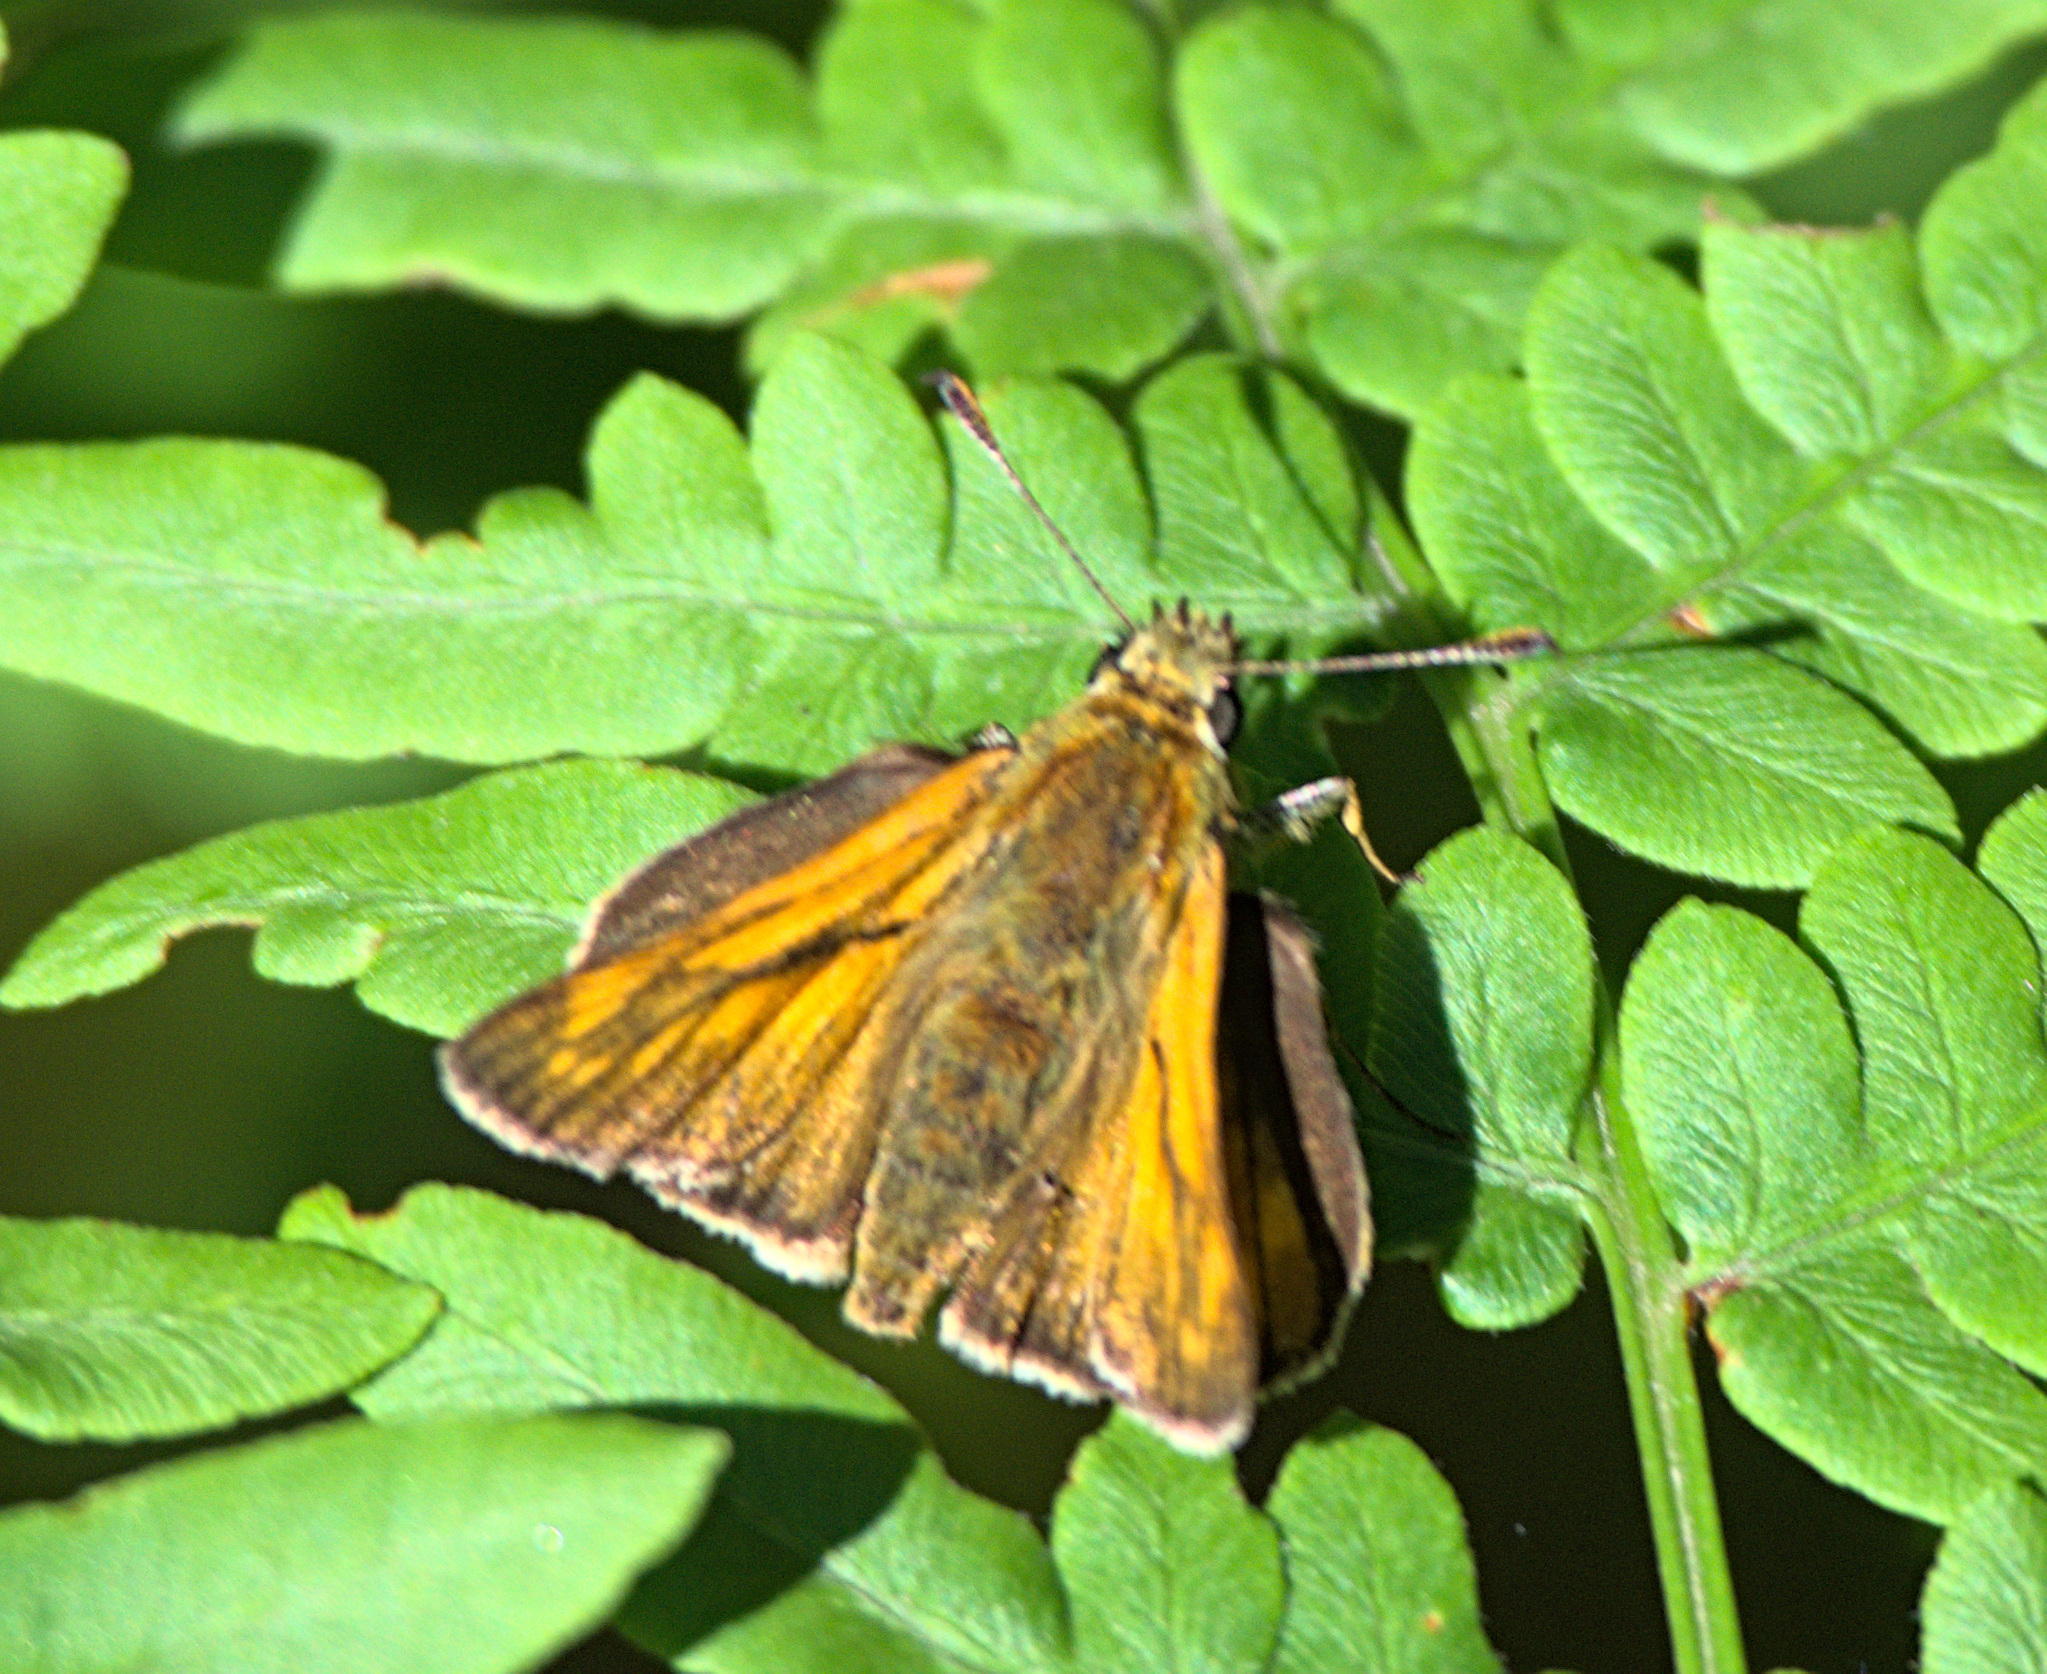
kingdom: Animalia
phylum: Arthropoda
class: Insecta
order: Lepidoptera
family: Hesperiidae
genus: Ochlodes
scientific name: Ochlodes venata
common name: Large skipper
